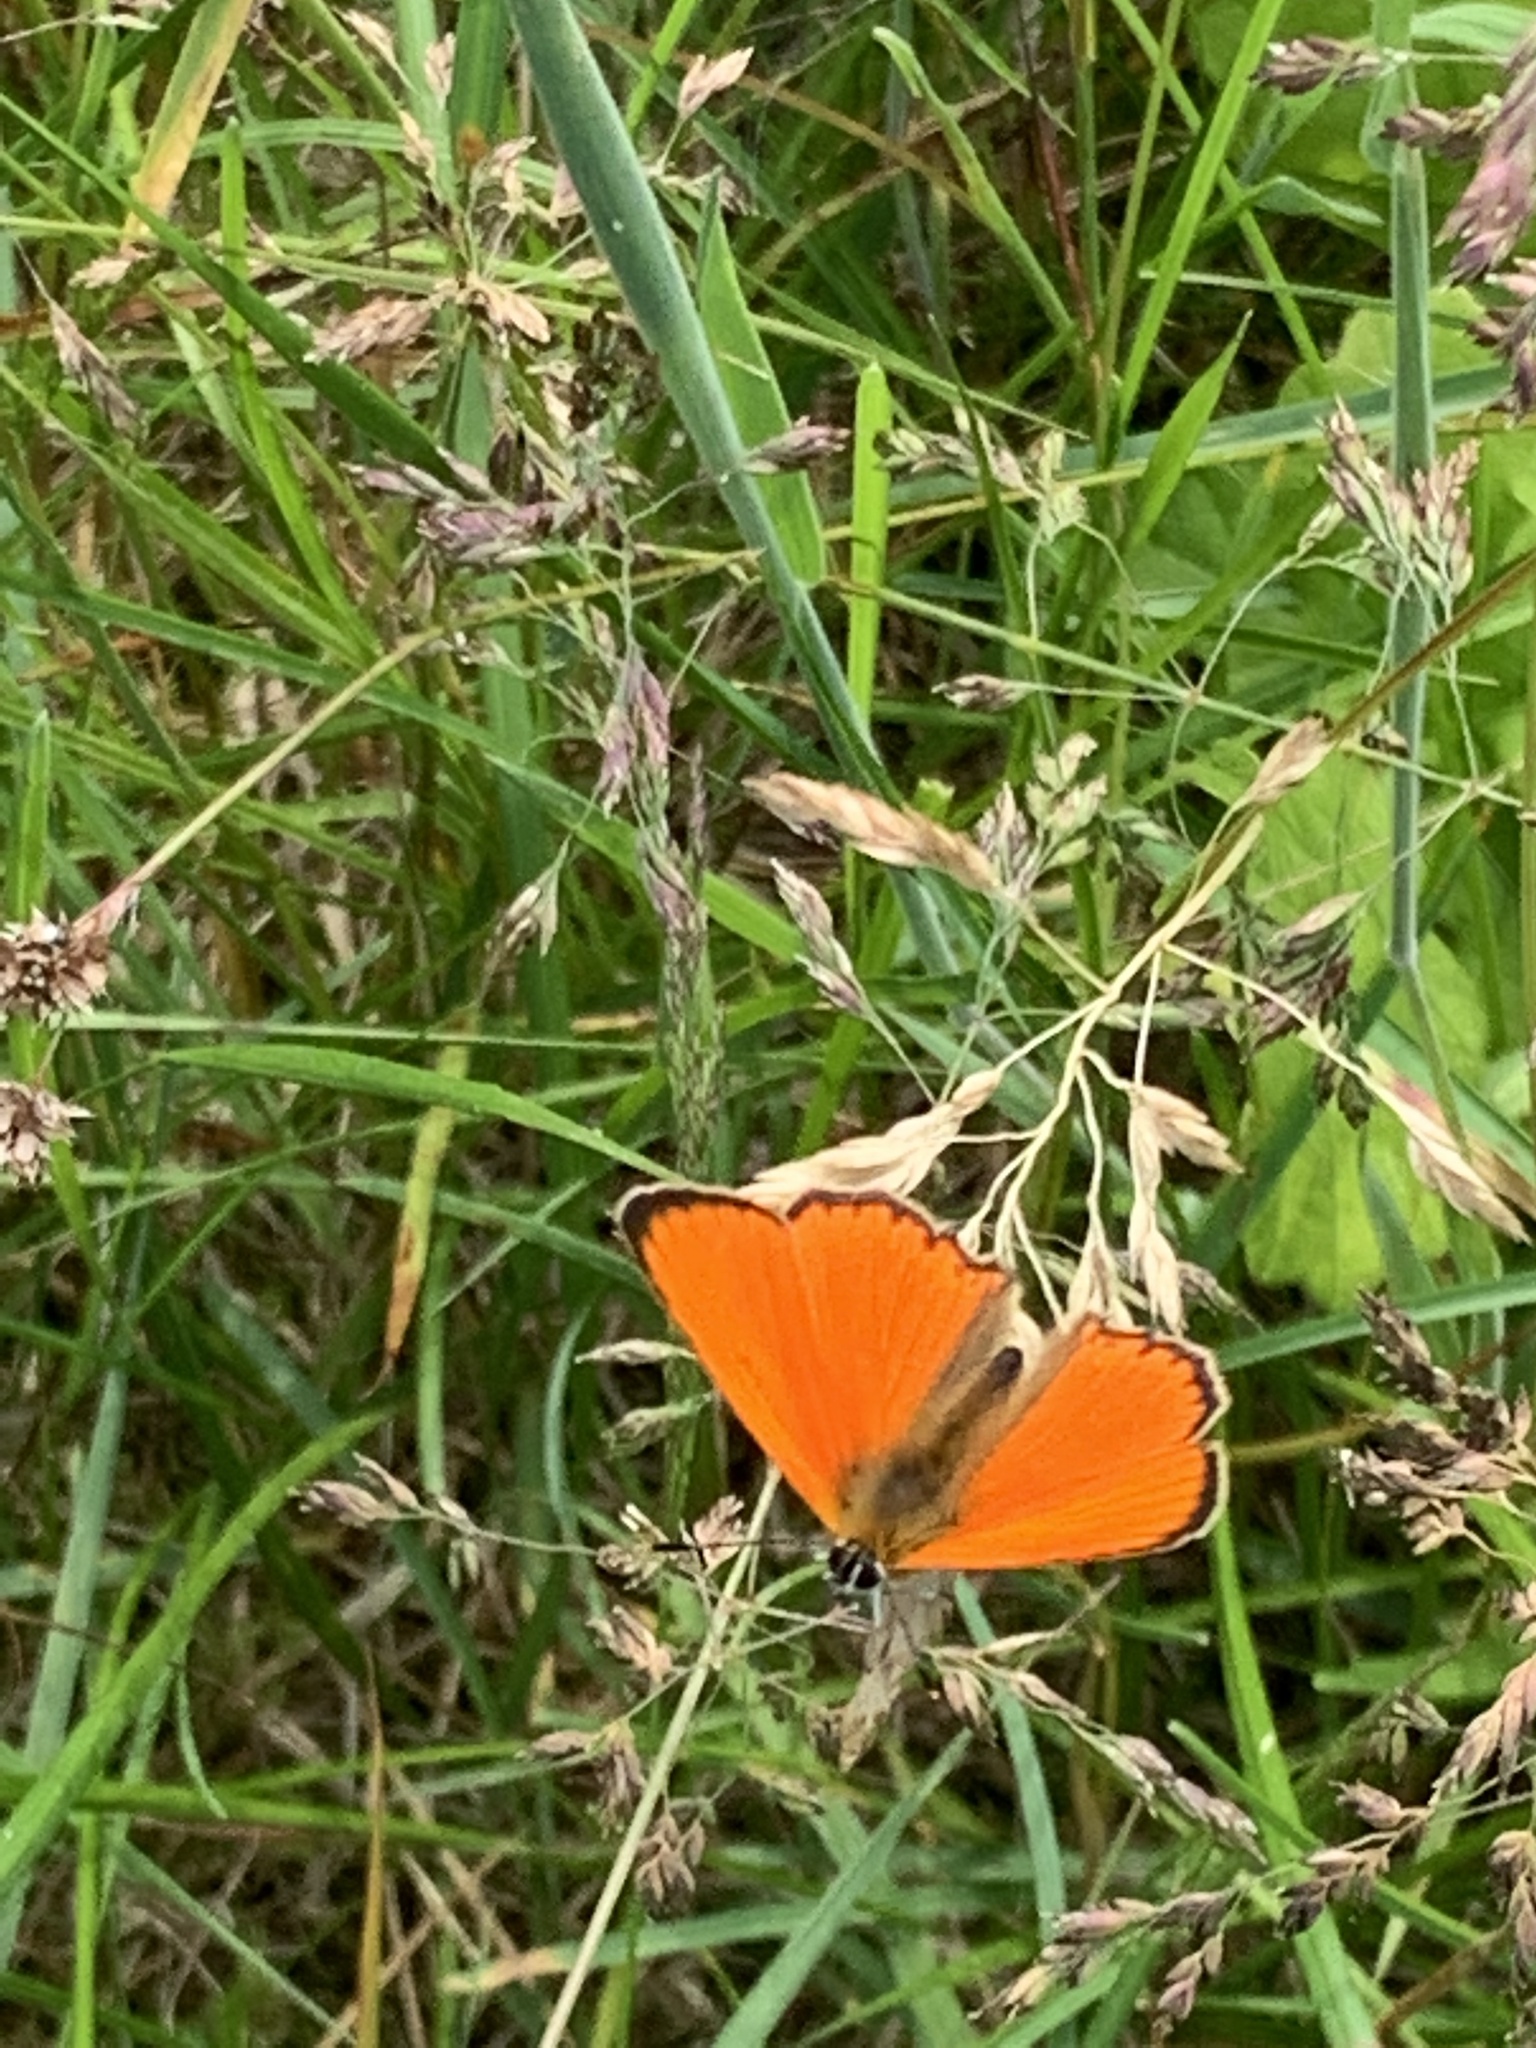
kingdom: Animalia
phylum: Arthropoda
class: Insecta
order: Lepidoptera
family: Lycaenidae
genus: Lycaena
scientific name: Lycaena virgaureae
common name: Scarce copper
